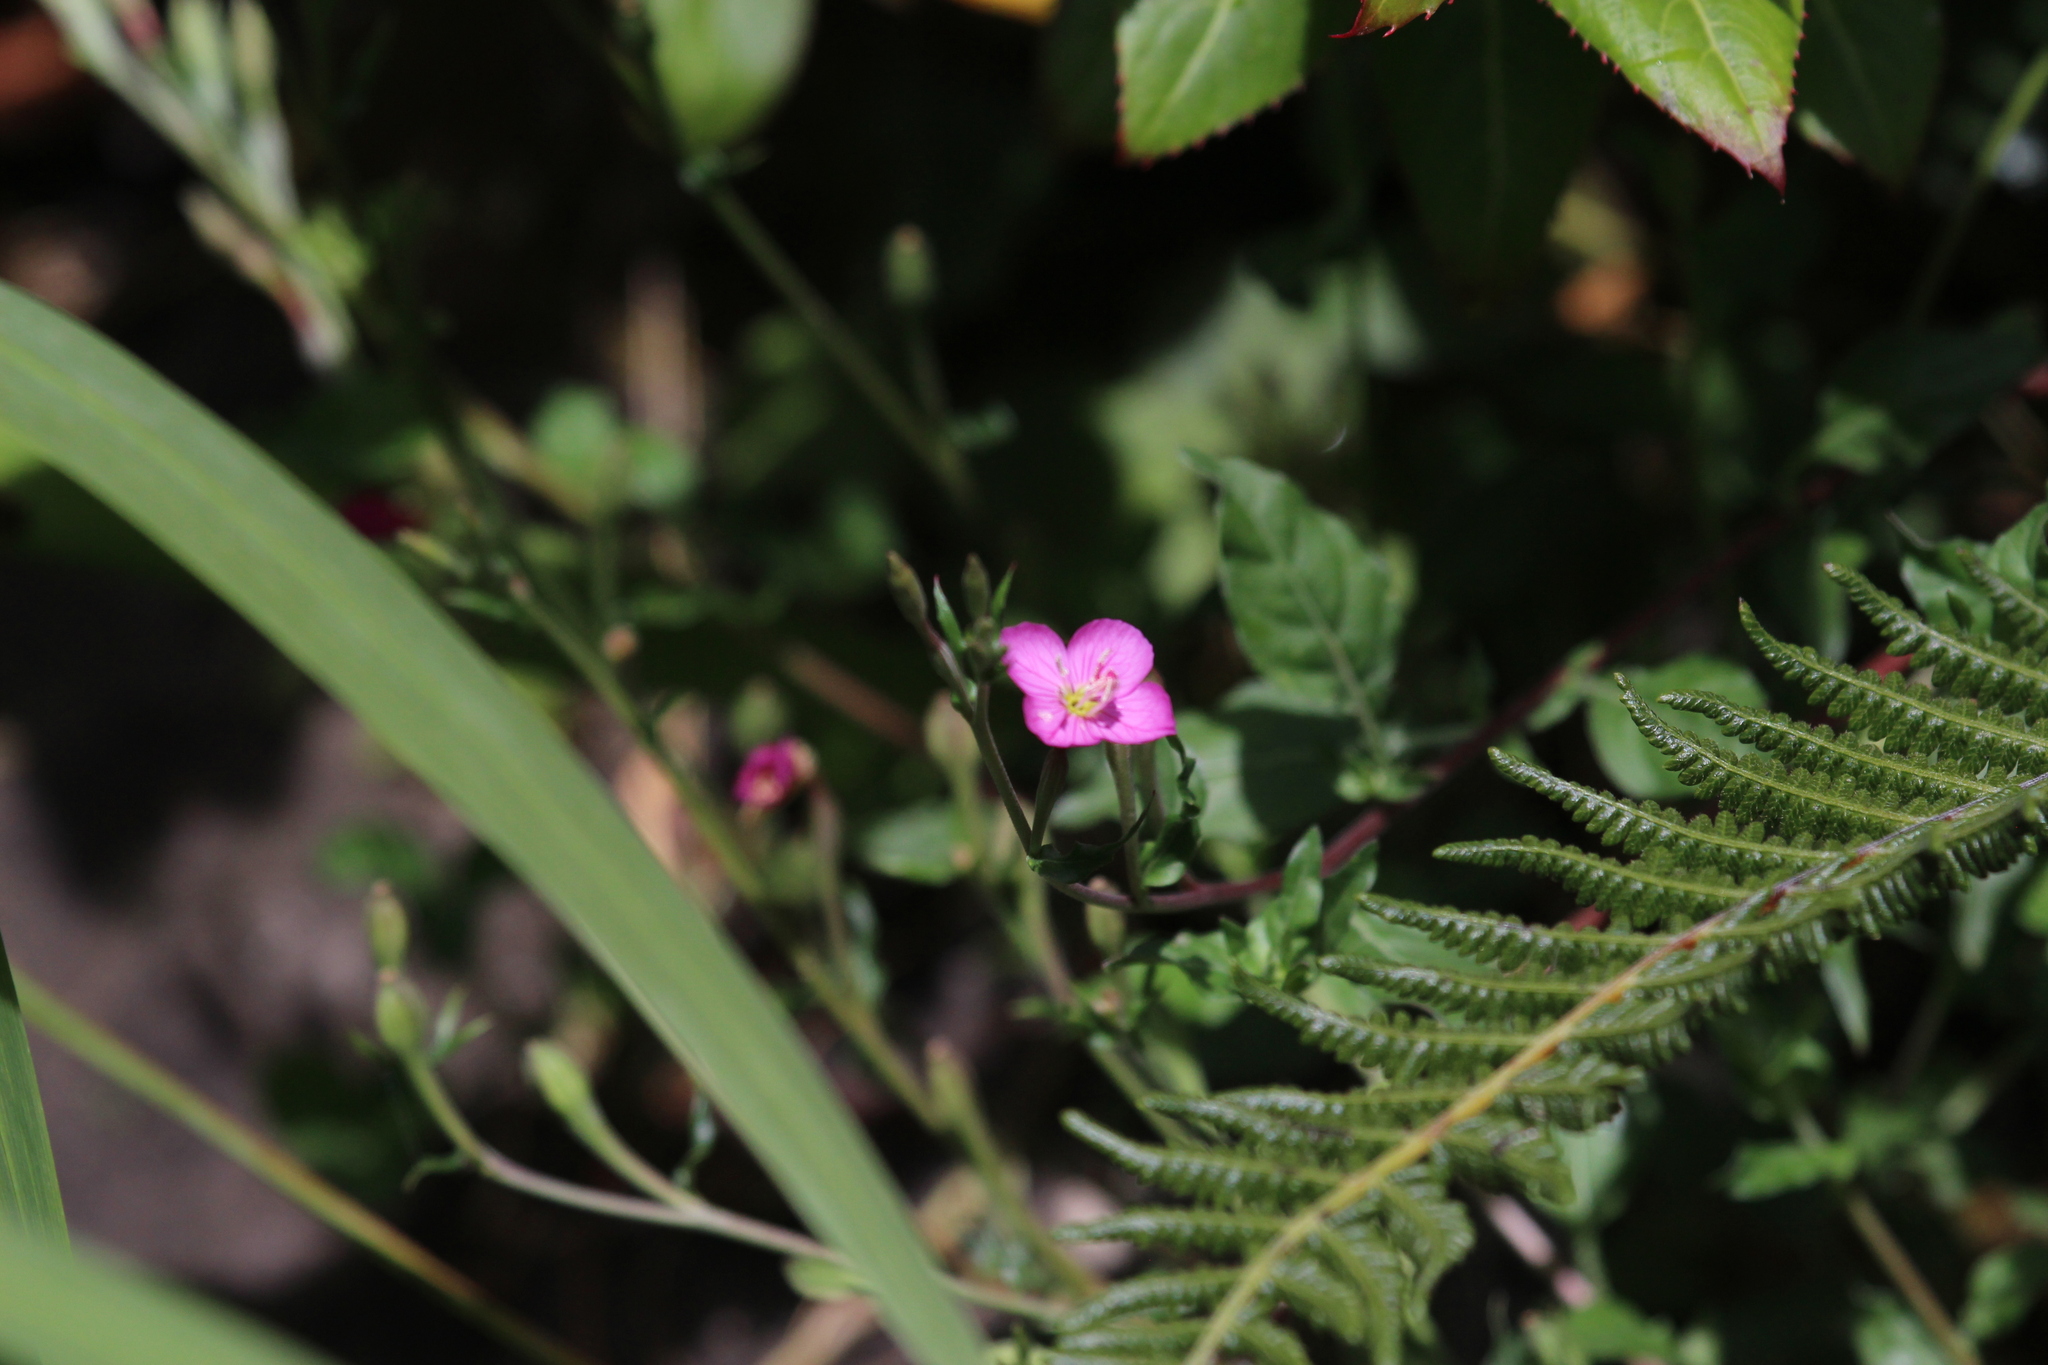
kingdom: Plantae
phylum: Tracheophyta
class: Magnoliopsida
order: Myrtales
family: Onagraceae
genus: Oenothera
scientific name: Oenothera rosea
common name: Rosy evening-primrose
